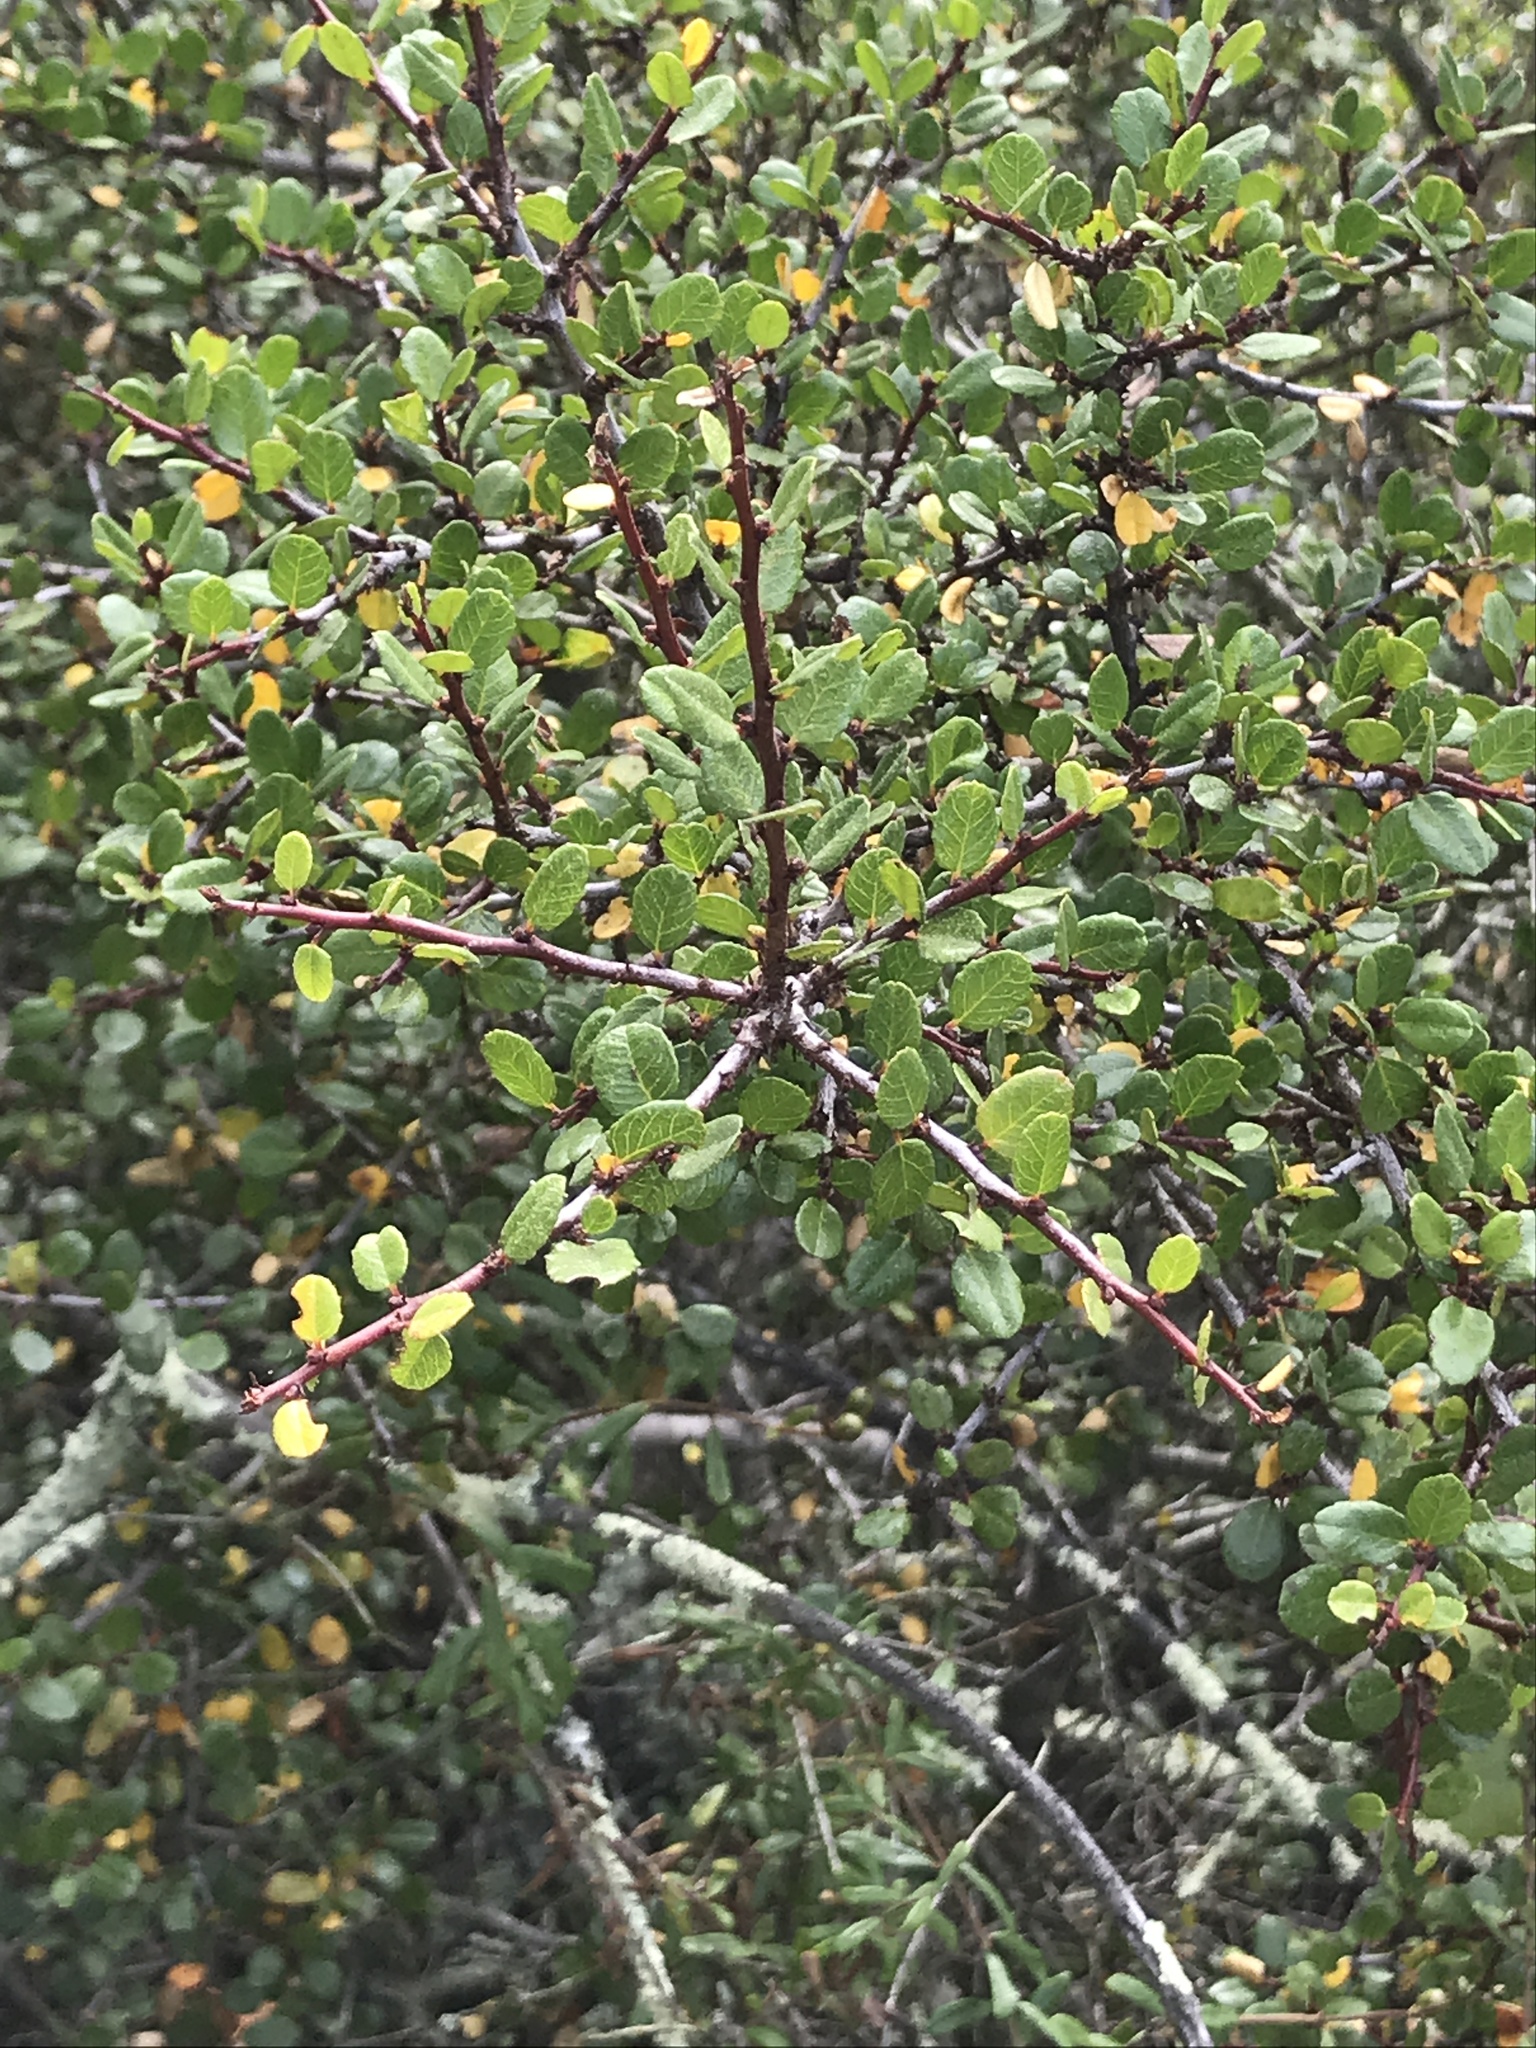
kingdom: Plantae
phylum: Tracheophyta
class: Magnoliopsida
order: Rosales
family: Rhamnaceae
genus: Endotropis
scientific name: Endotropis crocea
